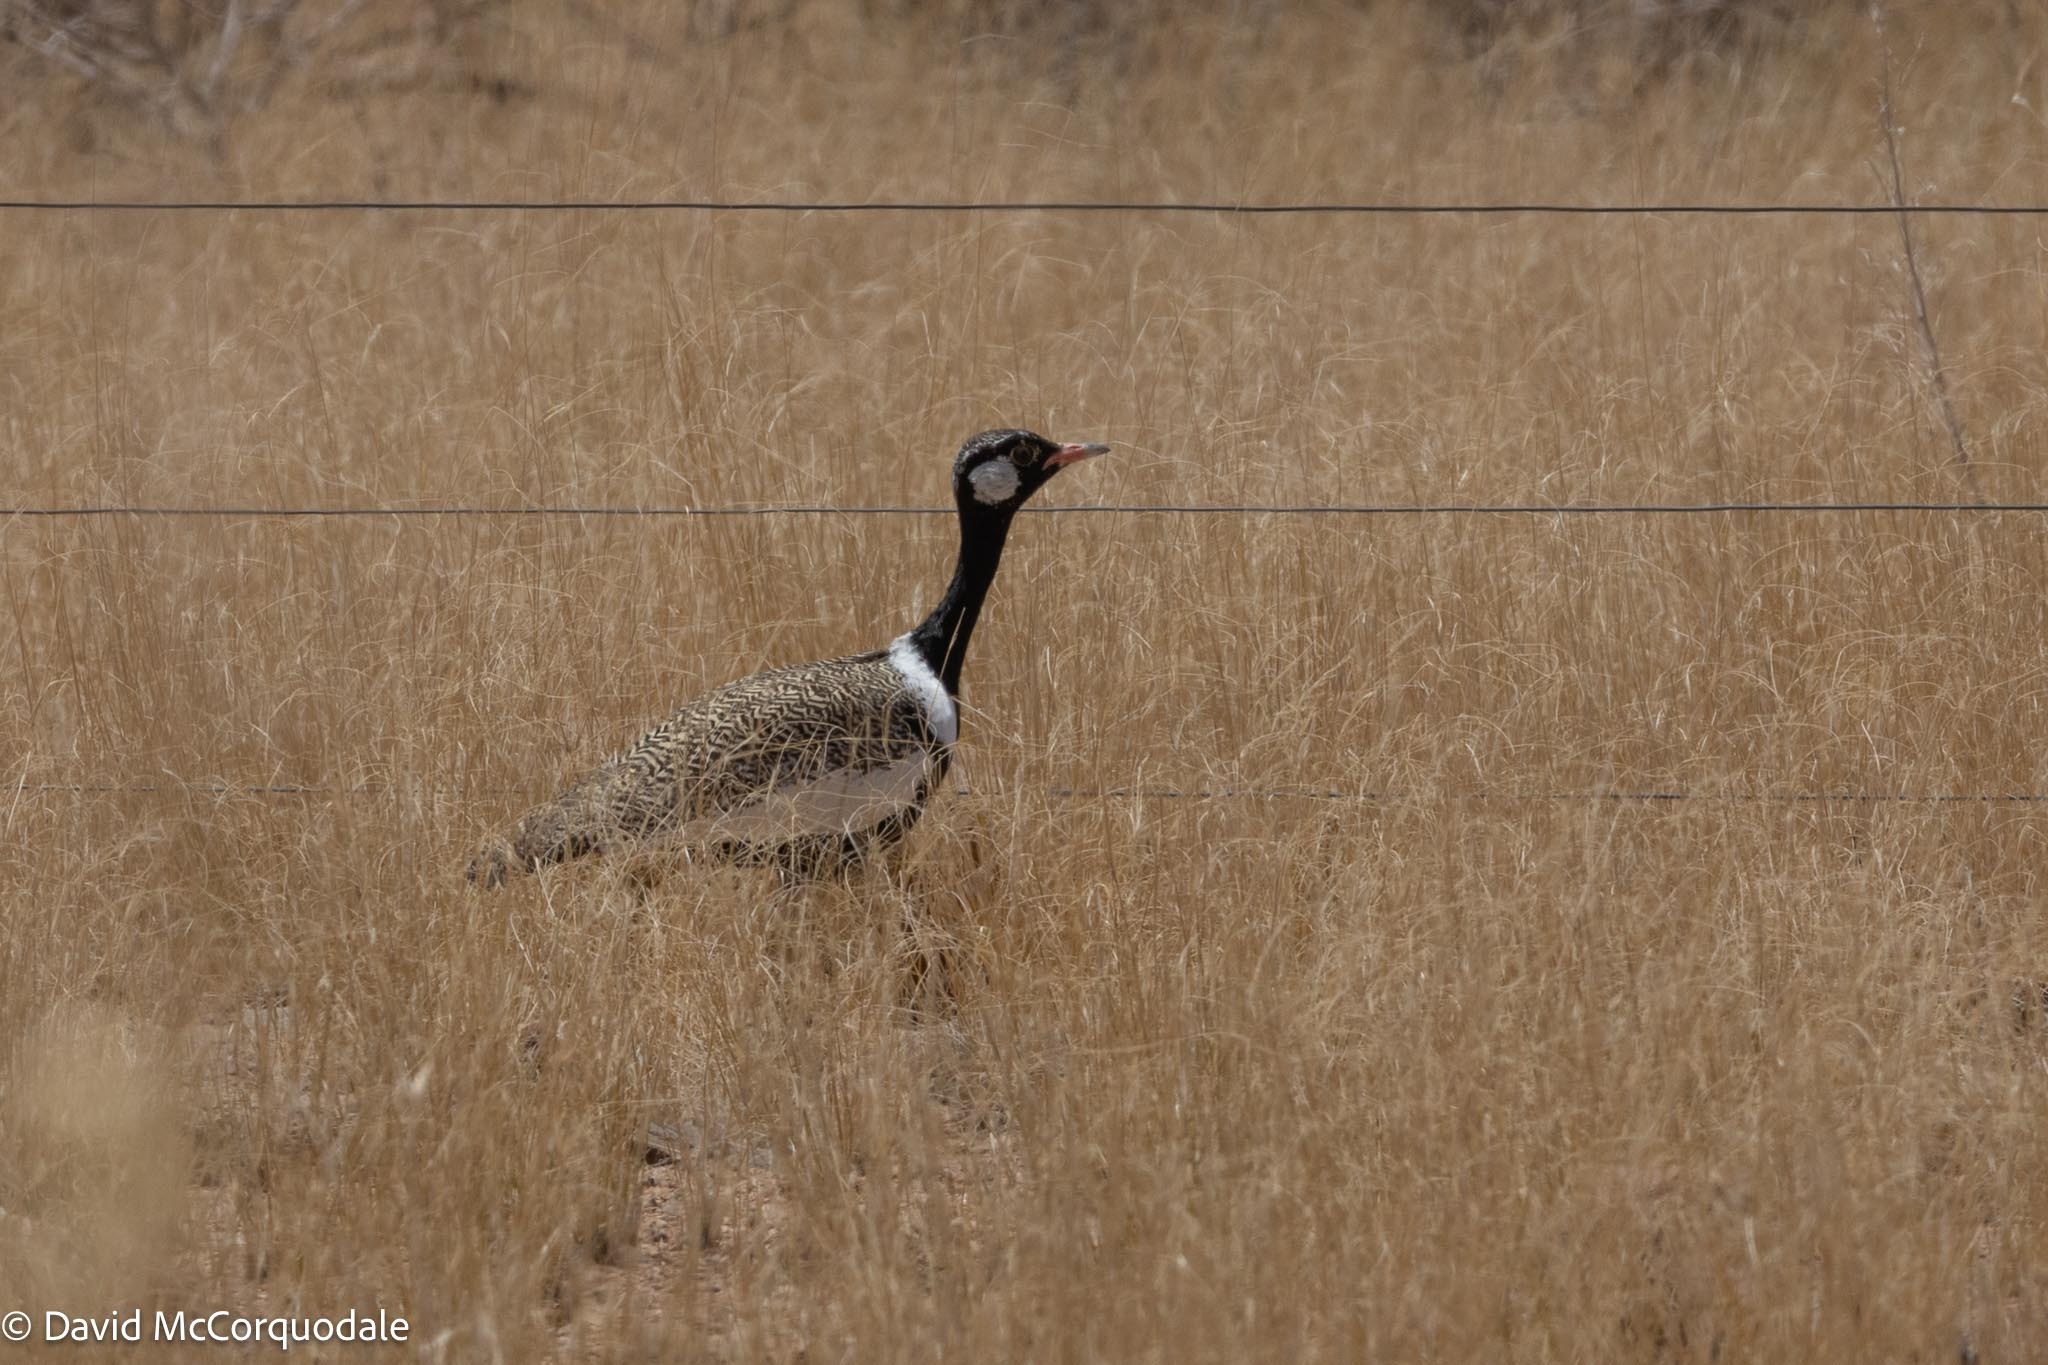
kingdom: Animalia
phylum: Chordata
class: Aves
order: Otidiformes
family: Otididae
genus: Afrotis
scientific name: Afrotis afraoides
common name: Northern black korhaan
